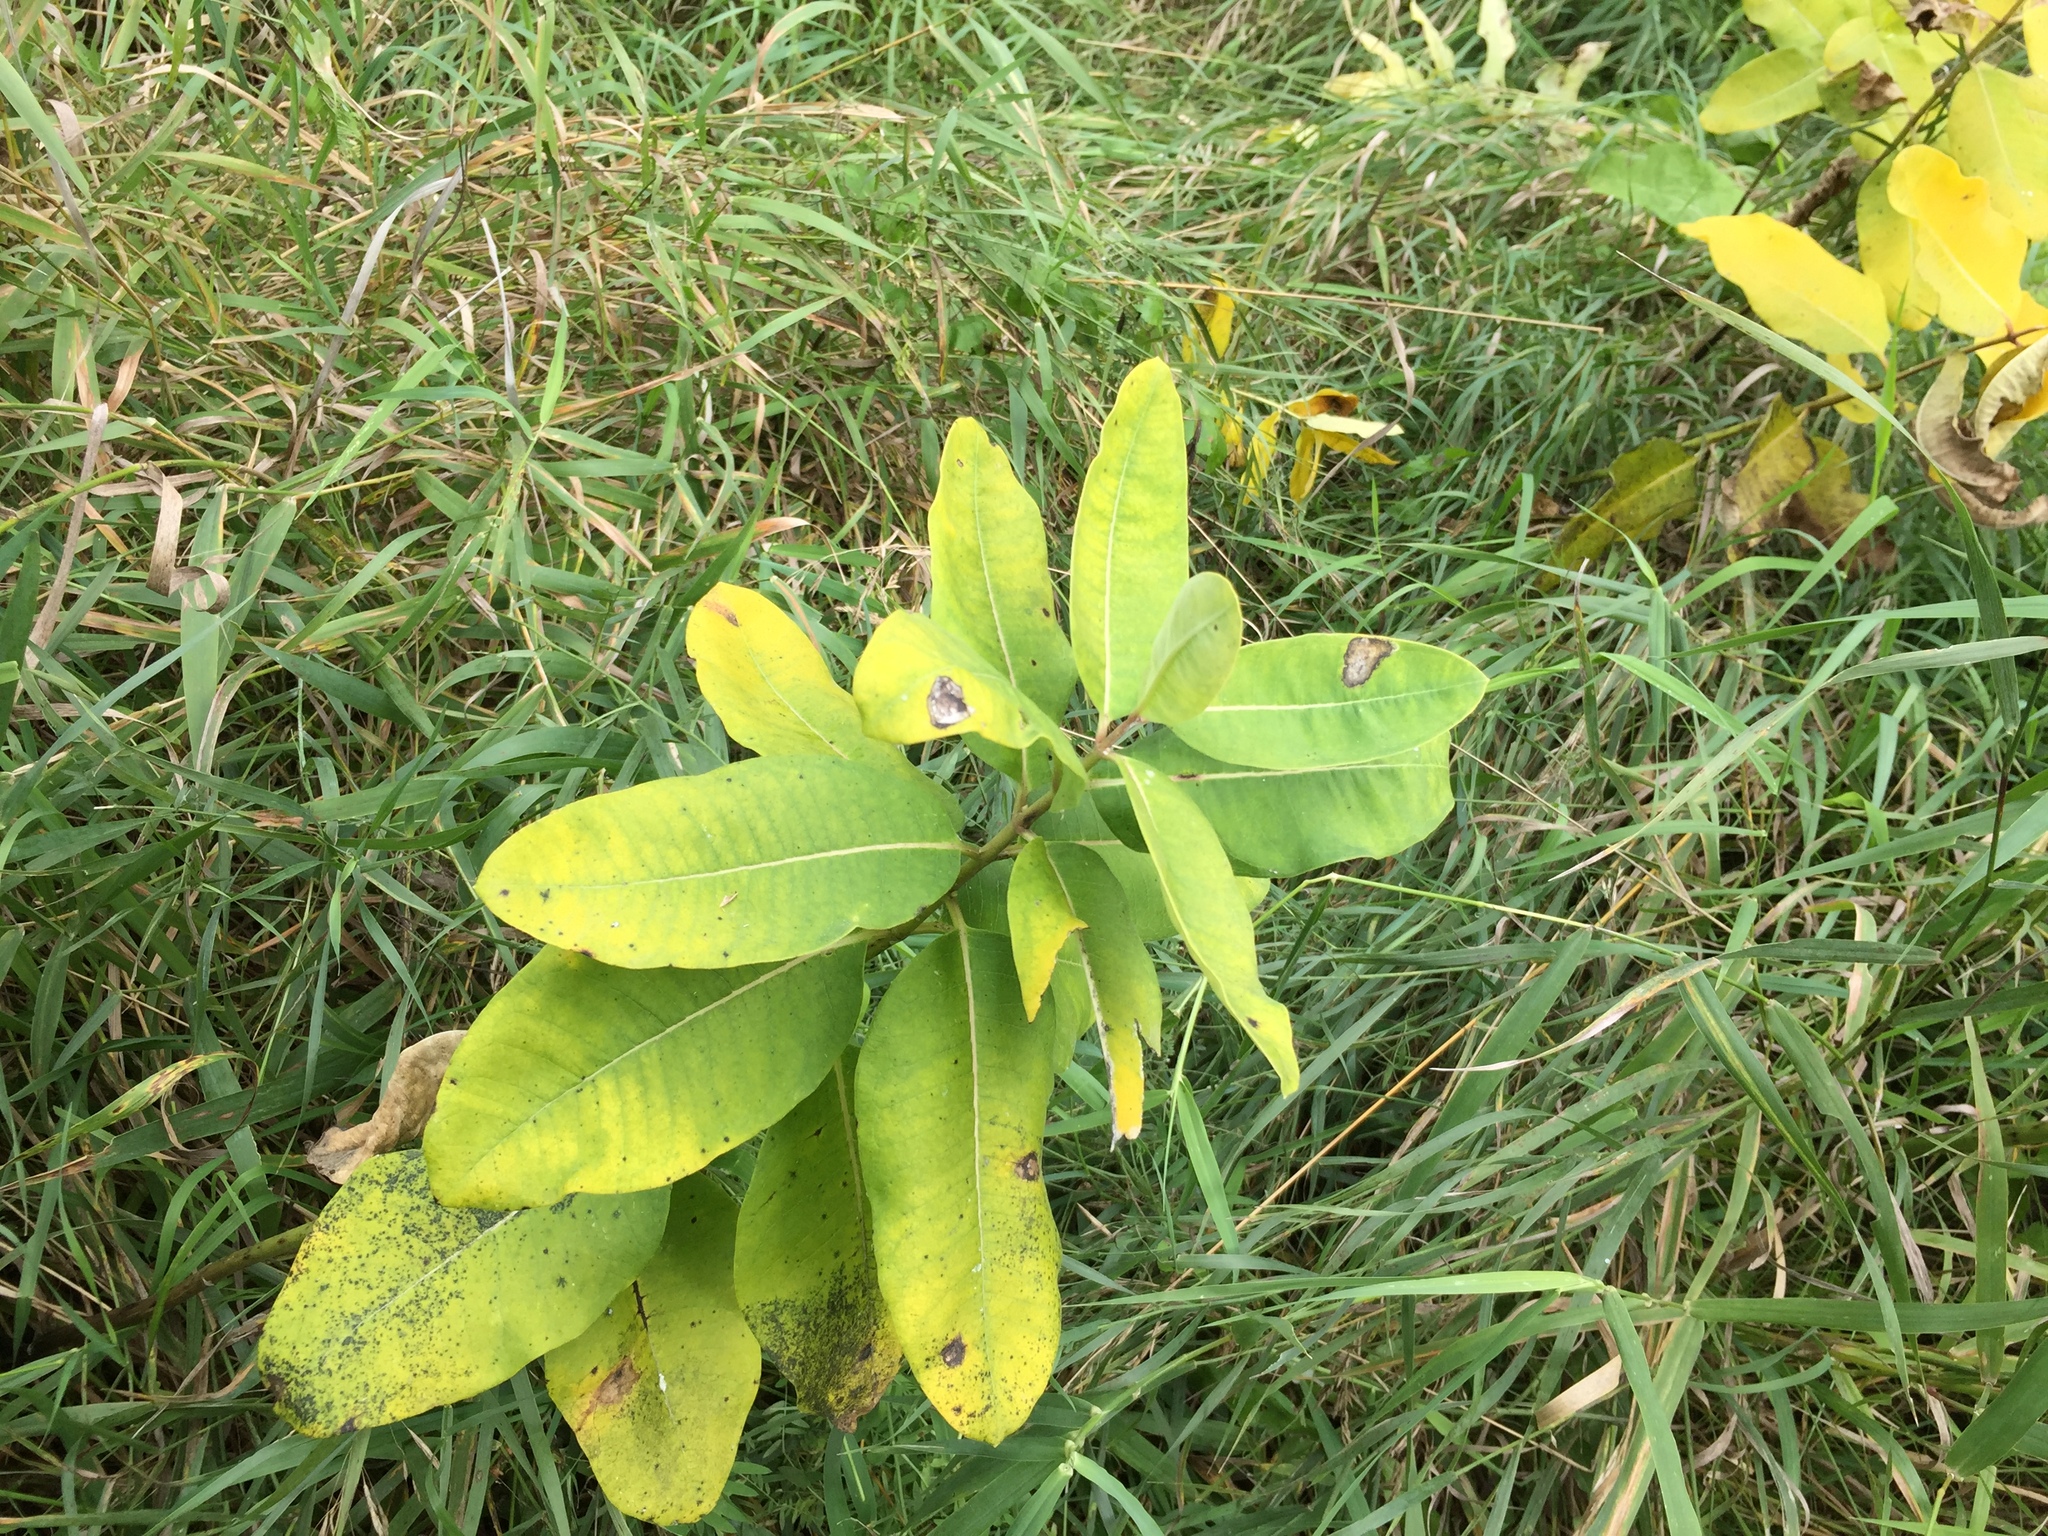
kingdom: Plantae
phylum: Tracheophyta
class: Magnoliopsida
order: Gentianales
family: Apocynaceae
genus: Asclepias
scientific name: Asclepias syriaca
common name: Common milkweed
